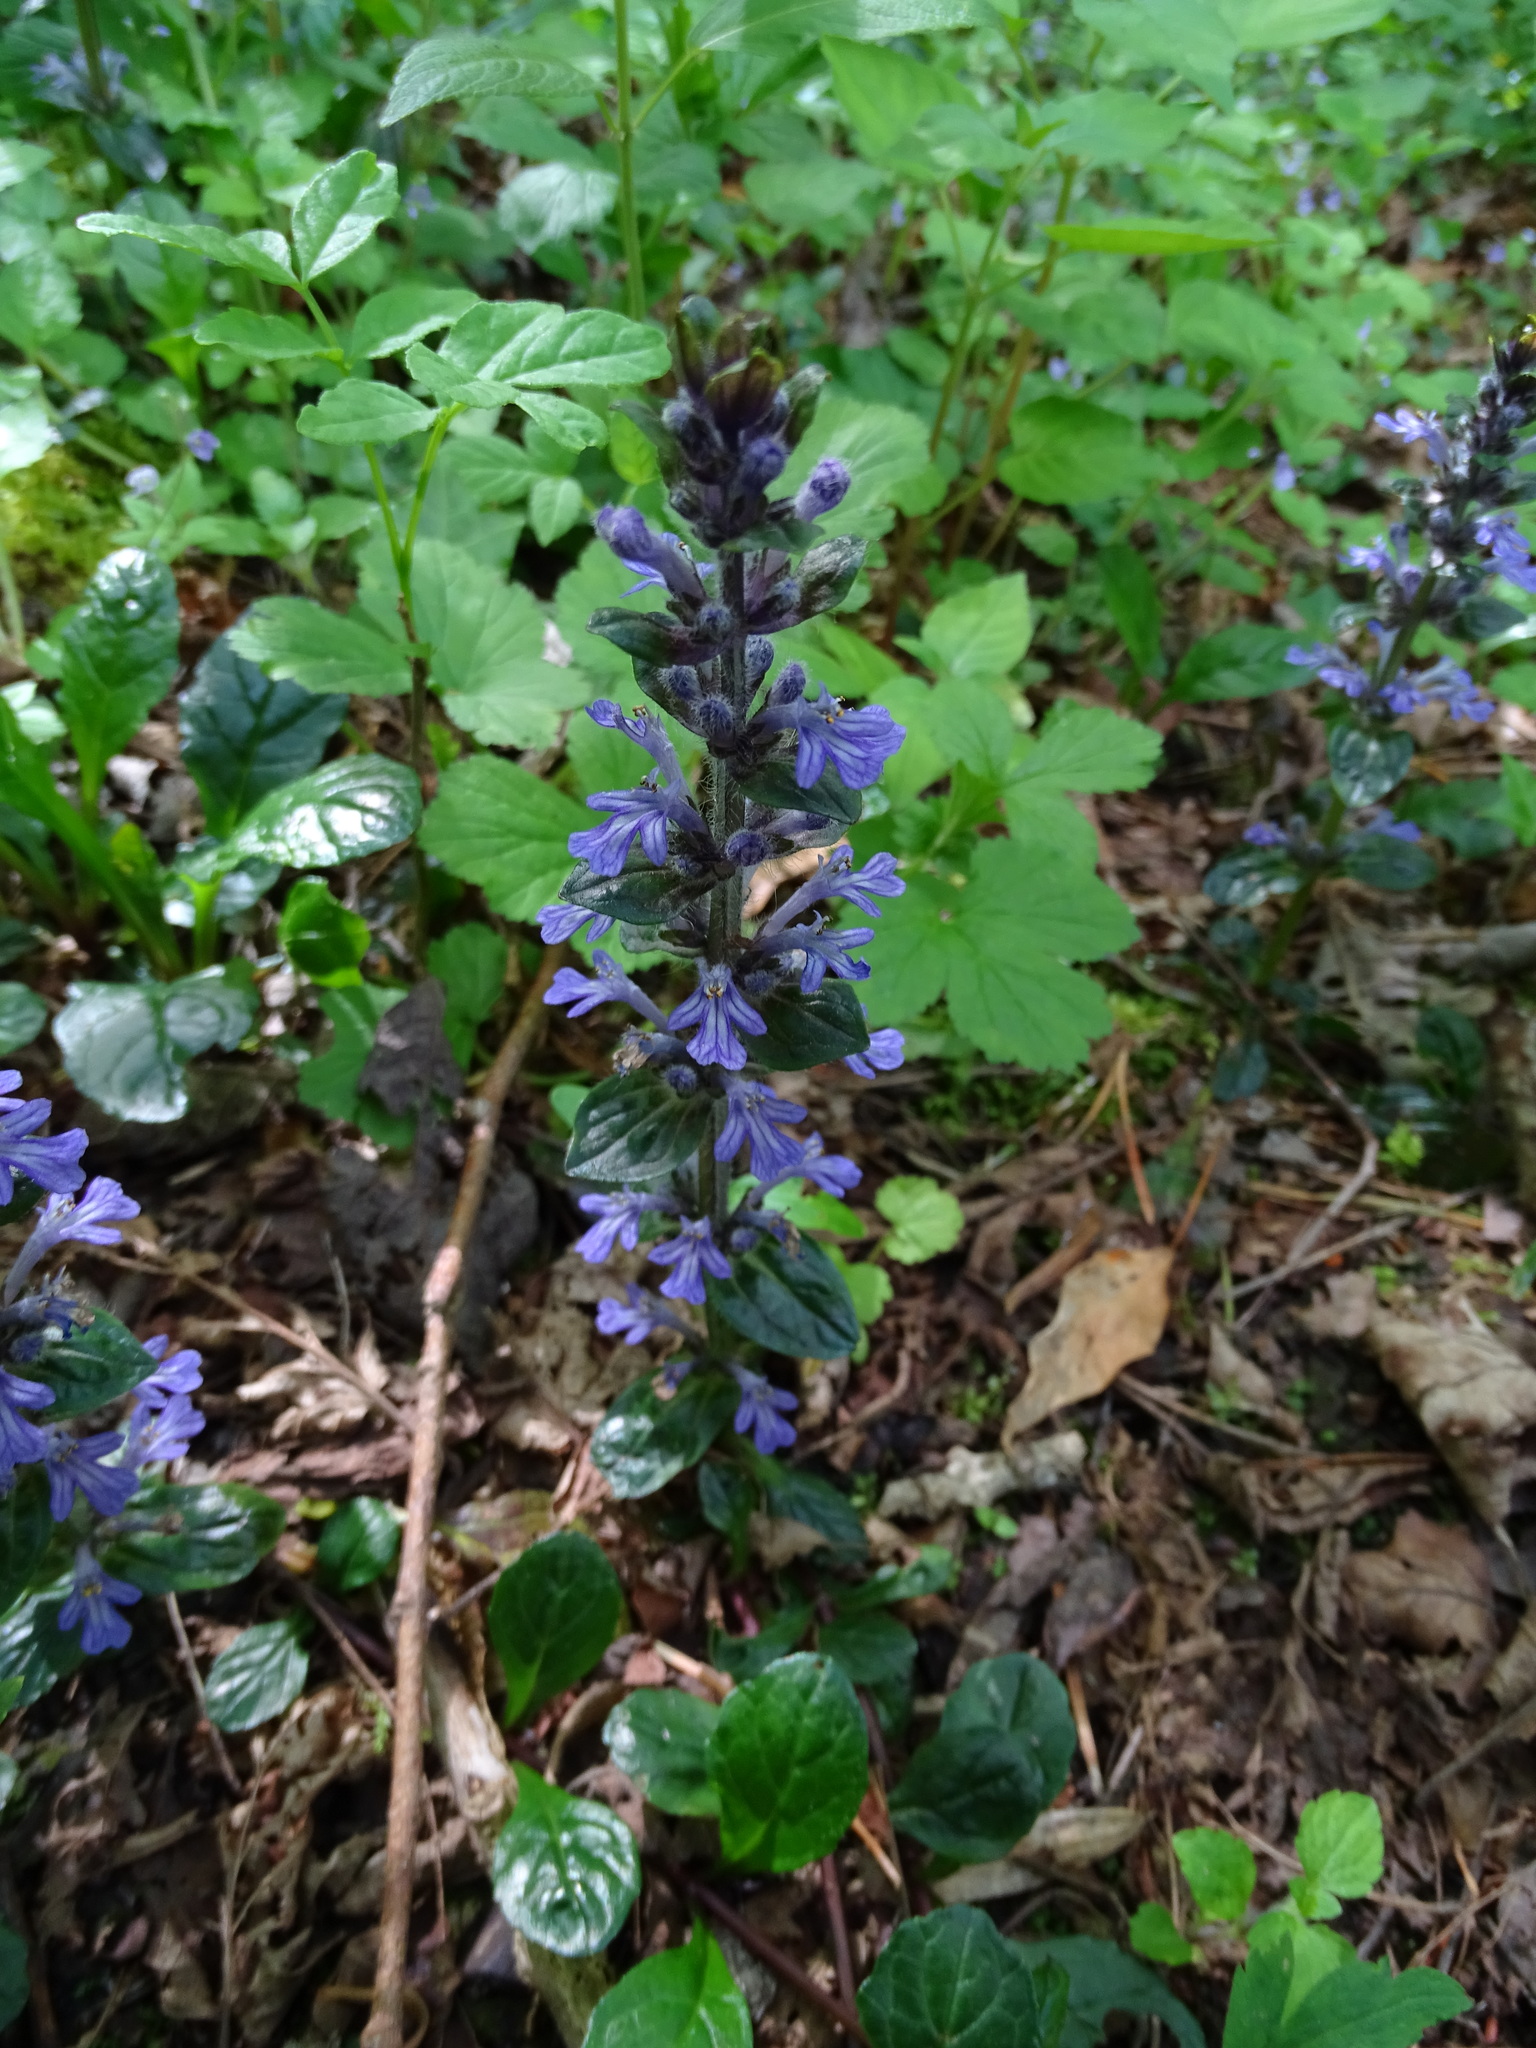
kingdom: Plantae
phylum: Tracheophyta
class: Magnoliopsida
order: Lamiales
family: Lamiaceae
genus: Ajuga
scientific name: Ajuga reptans
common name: Bugle
